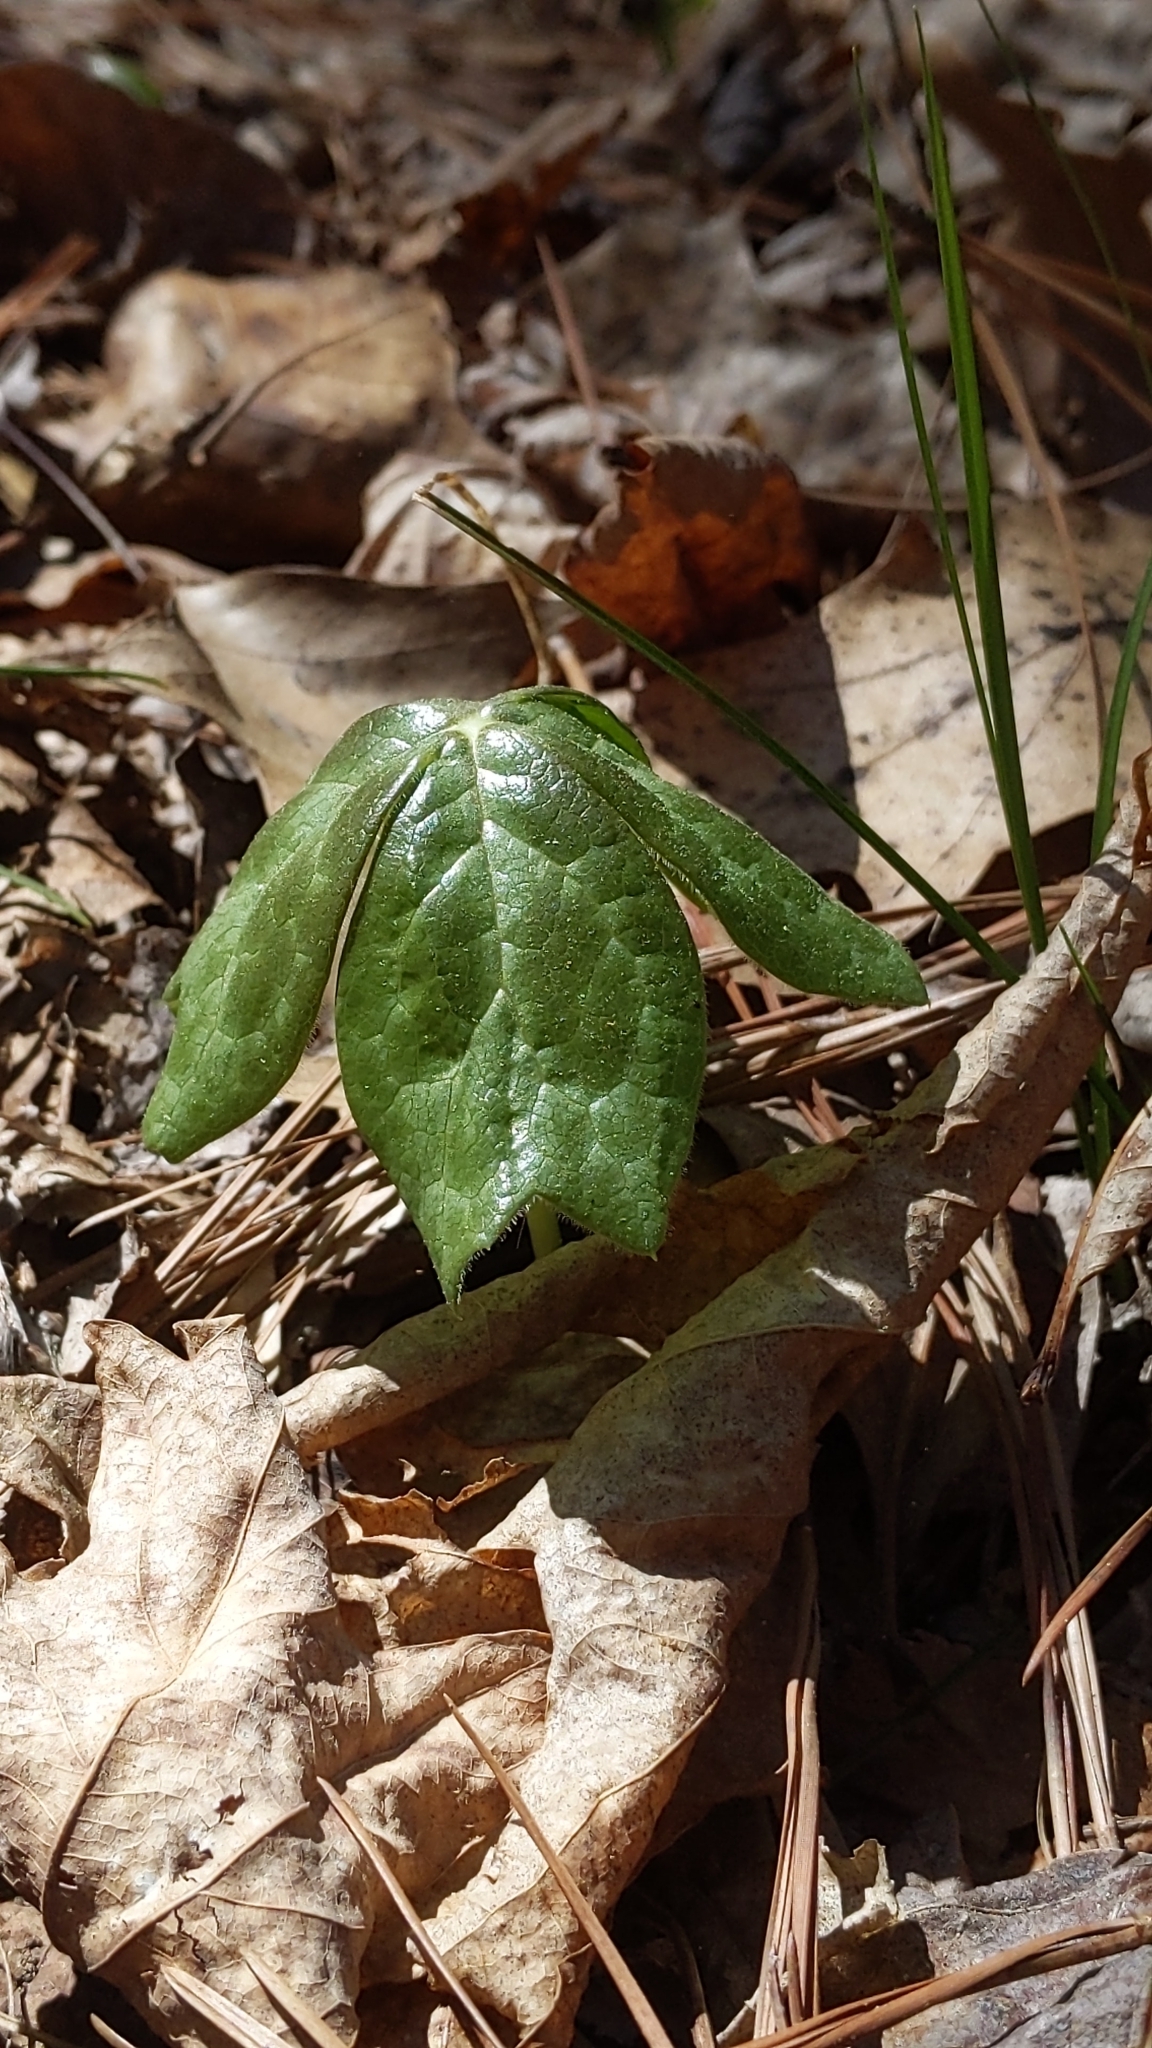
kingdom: Plantae
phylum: Tracheophyta
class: Magnoliopsida
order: Ranunculales
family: Berberidaceae
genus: Podophyllum
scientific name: Podophyllum peltatum
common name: Wild mandrake
